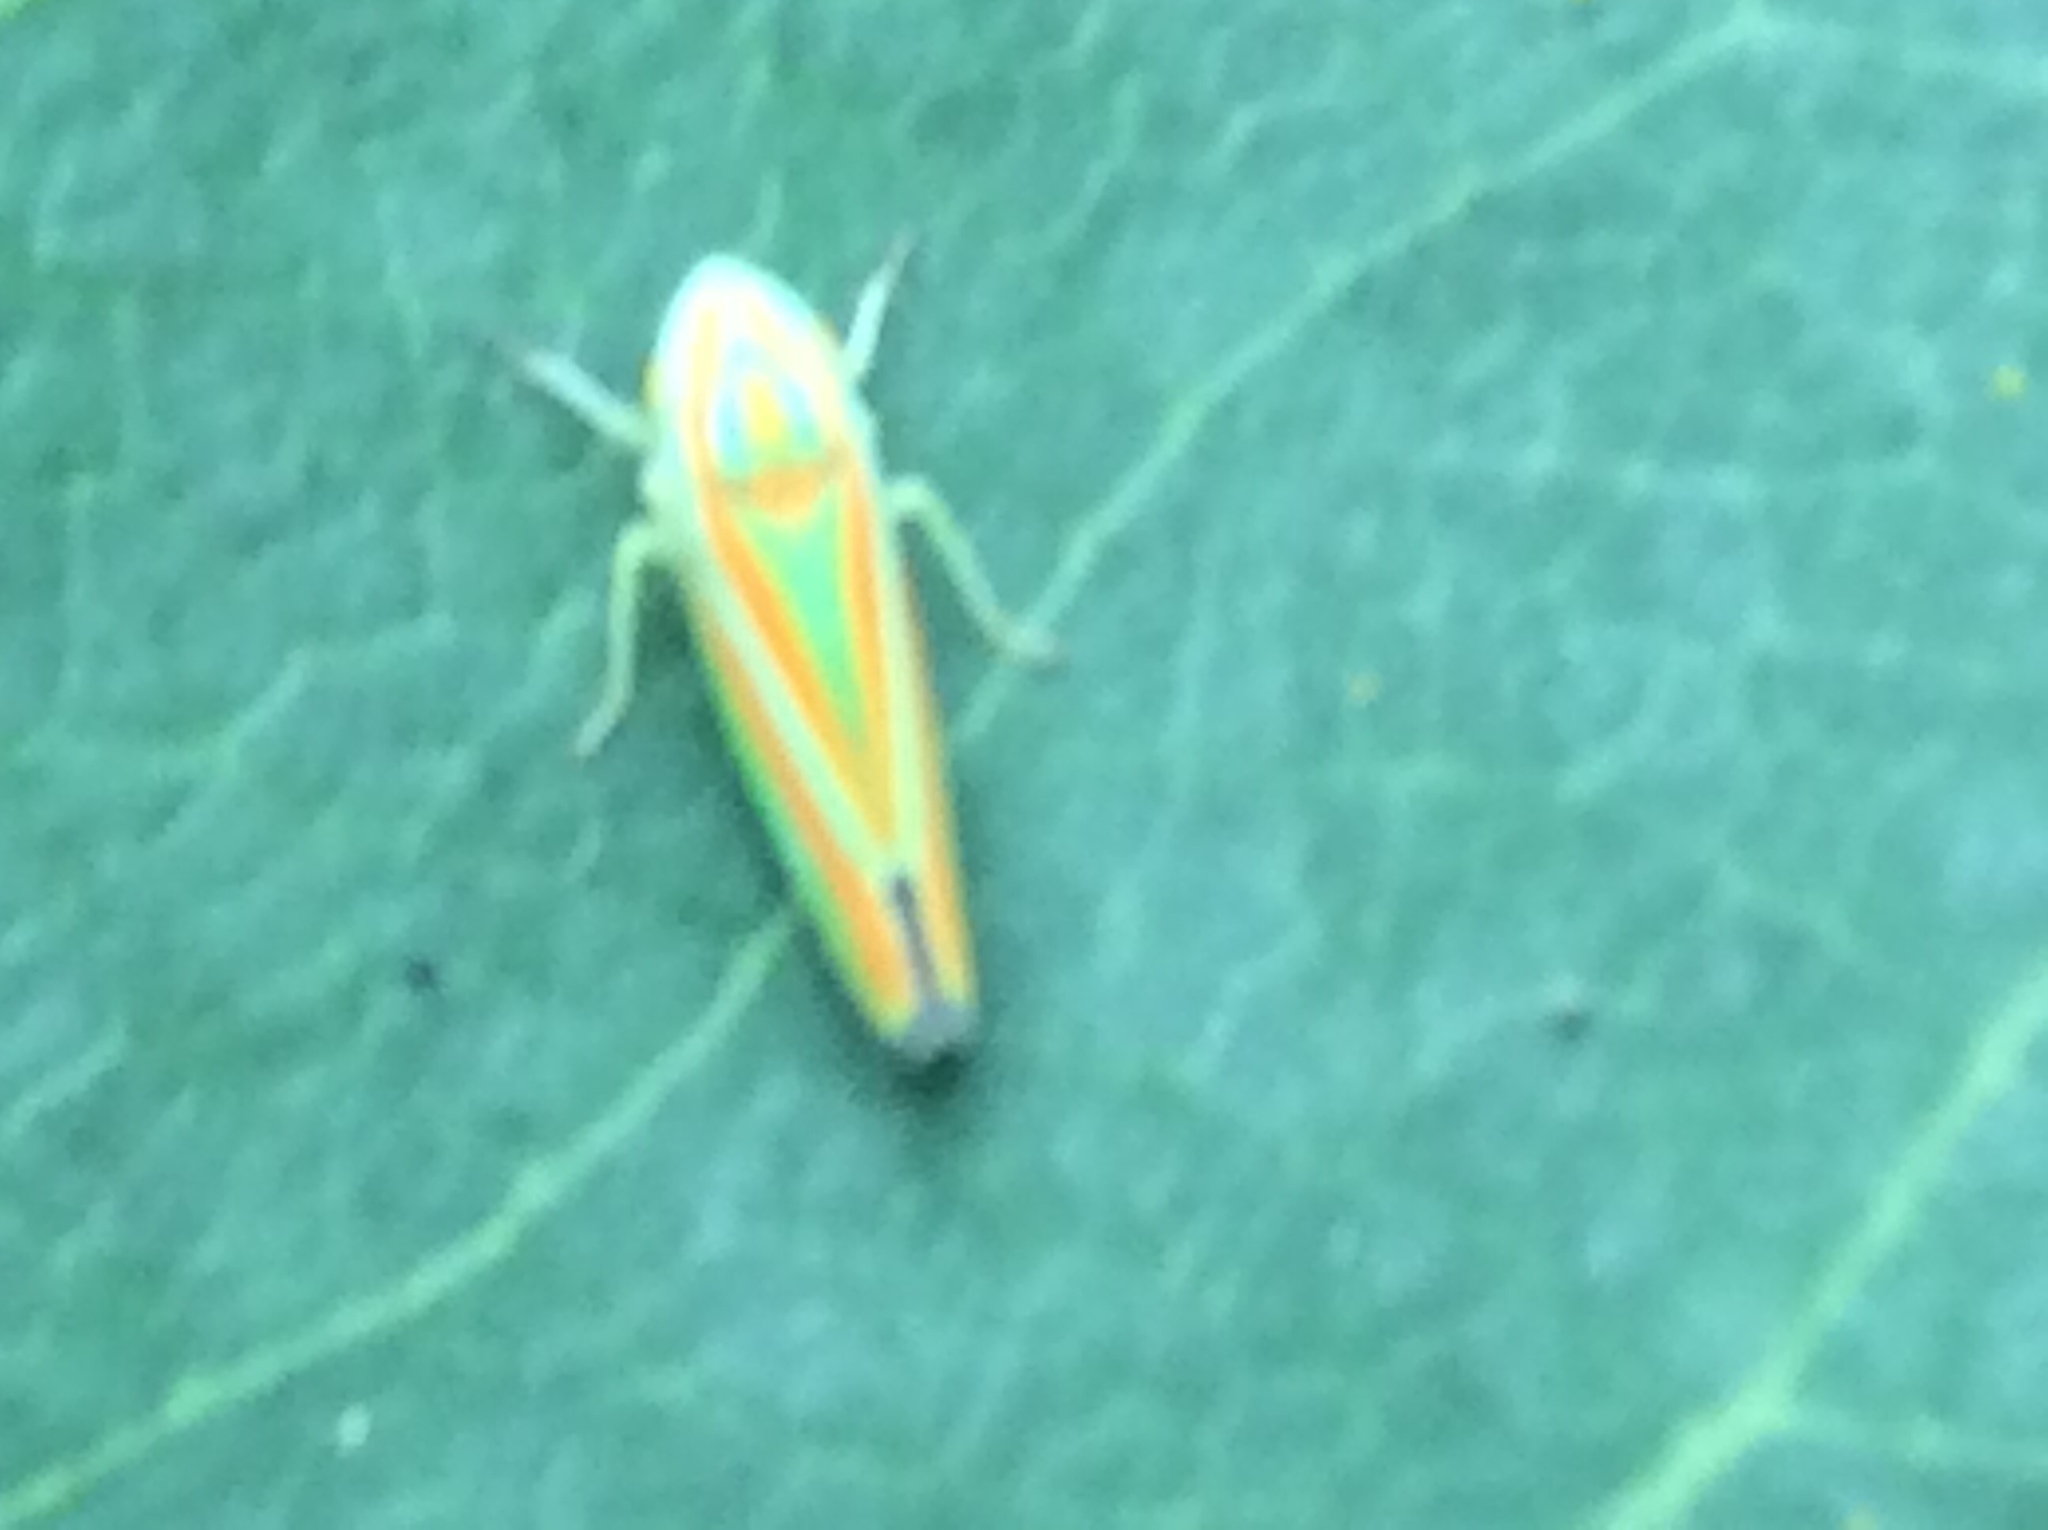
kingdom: Animalia
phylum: Arthropoda
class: Insecta
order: Hemiptera
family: Cicadellidae
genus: Graphocephala
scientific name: Graphocephala versuta
